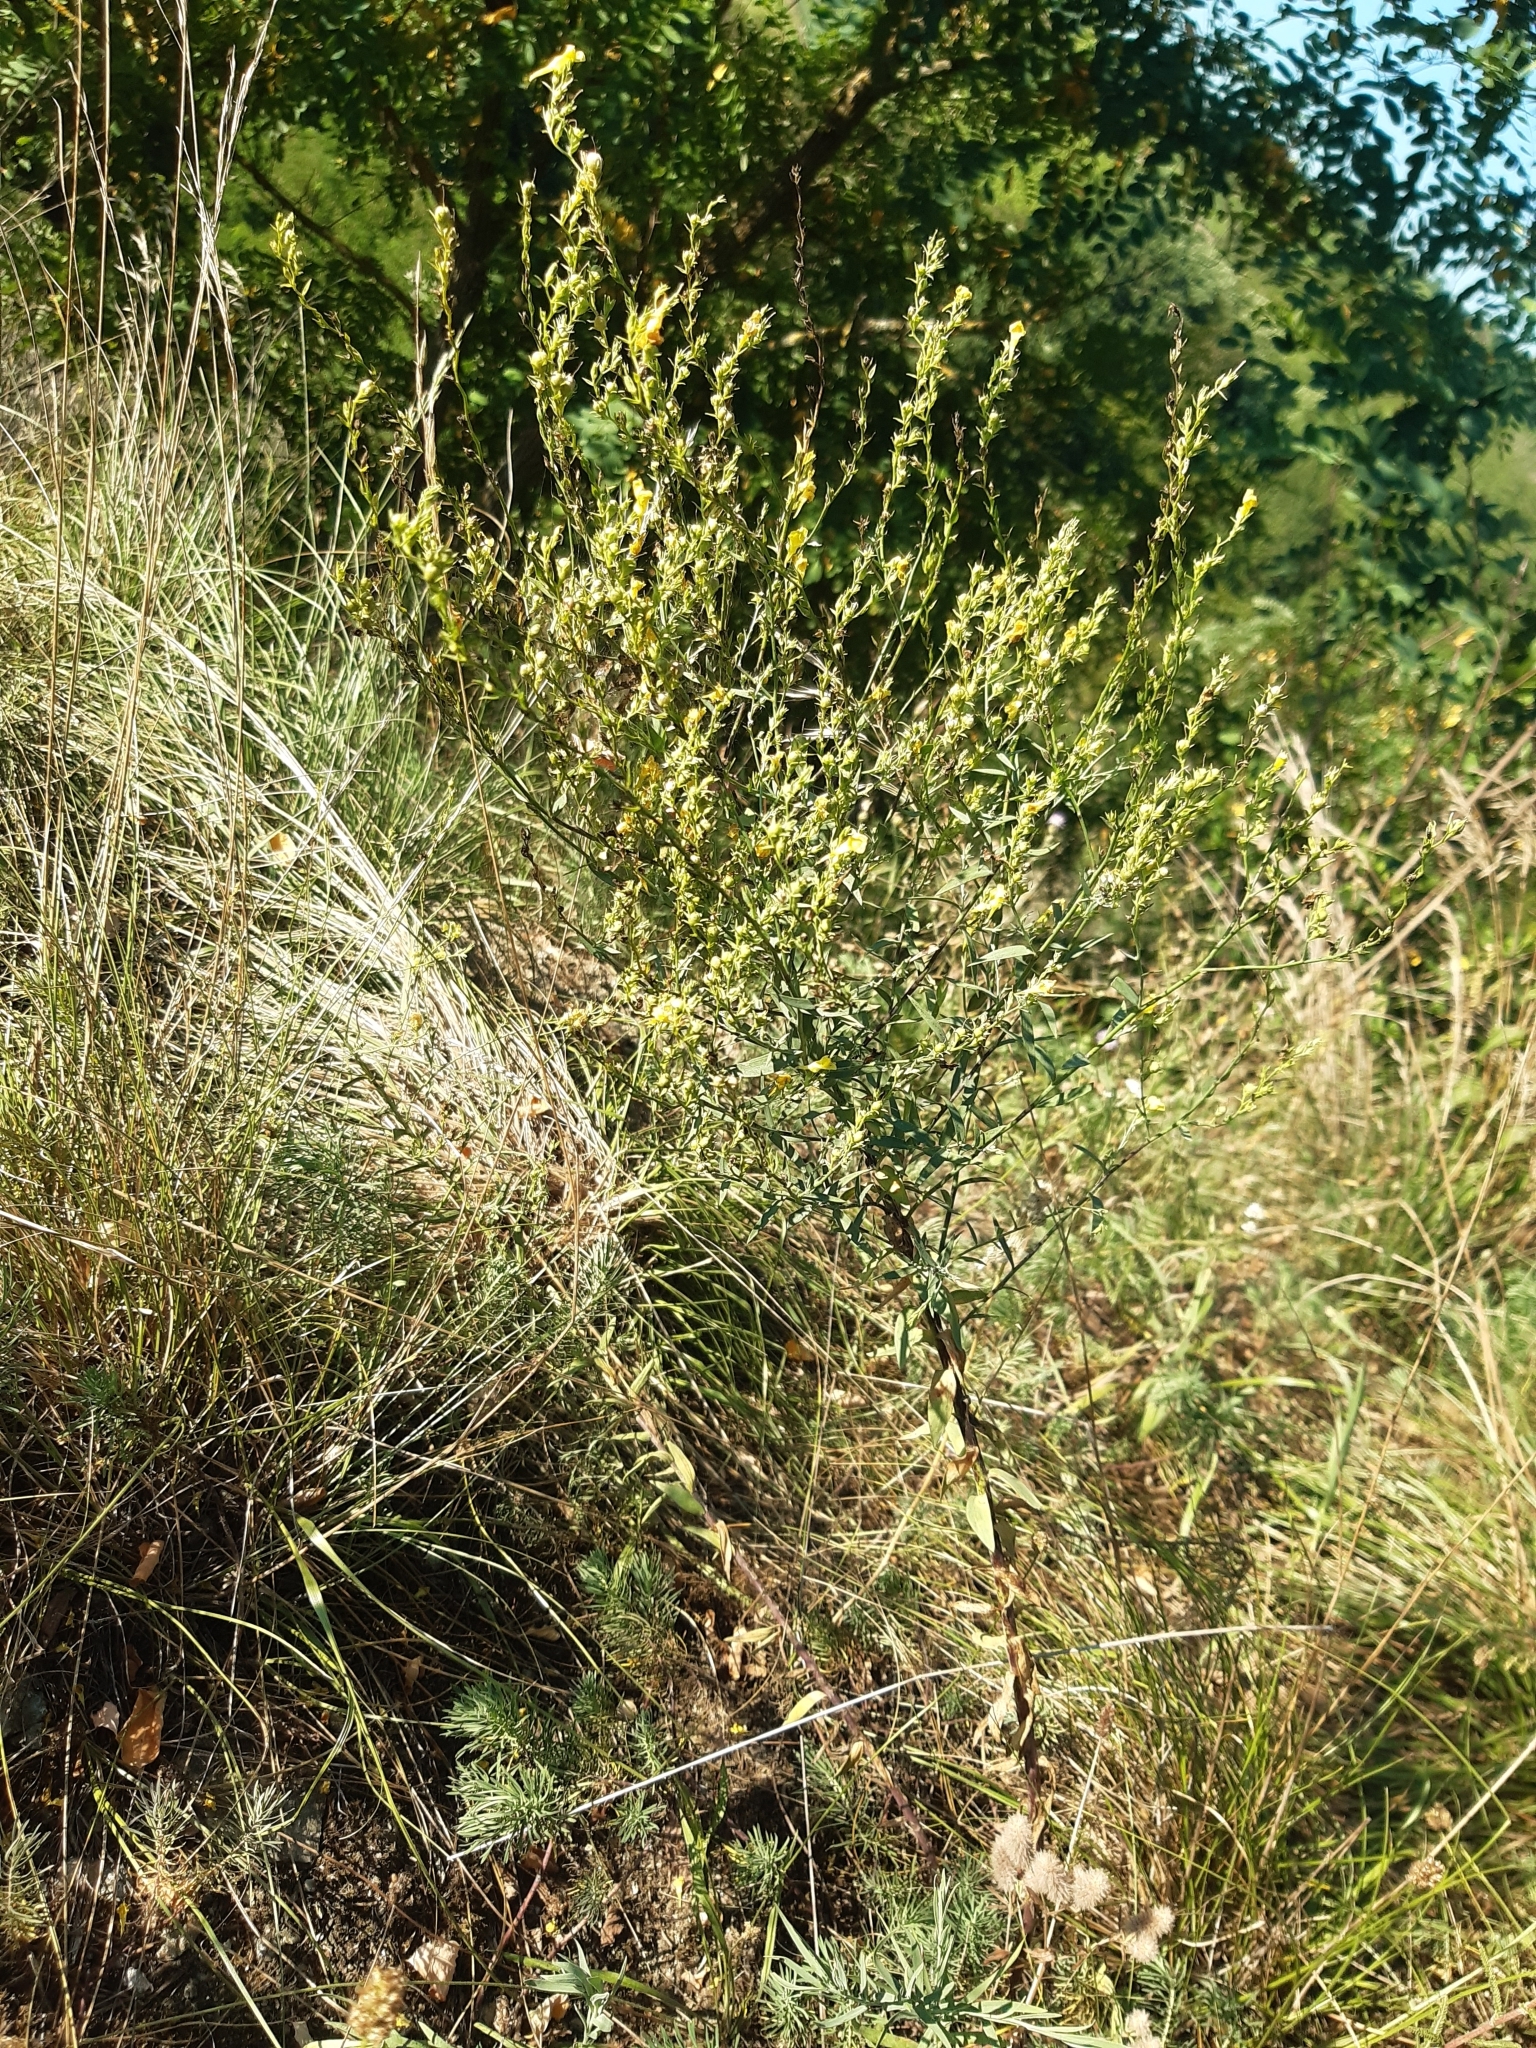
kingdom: Plantae
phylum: Tracheophyta
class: Magnoliopsida
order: Lamiales
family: Plantaginaceae
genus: Linaria
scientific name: Linaria genistifolia
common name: Broomleaf toadflax
